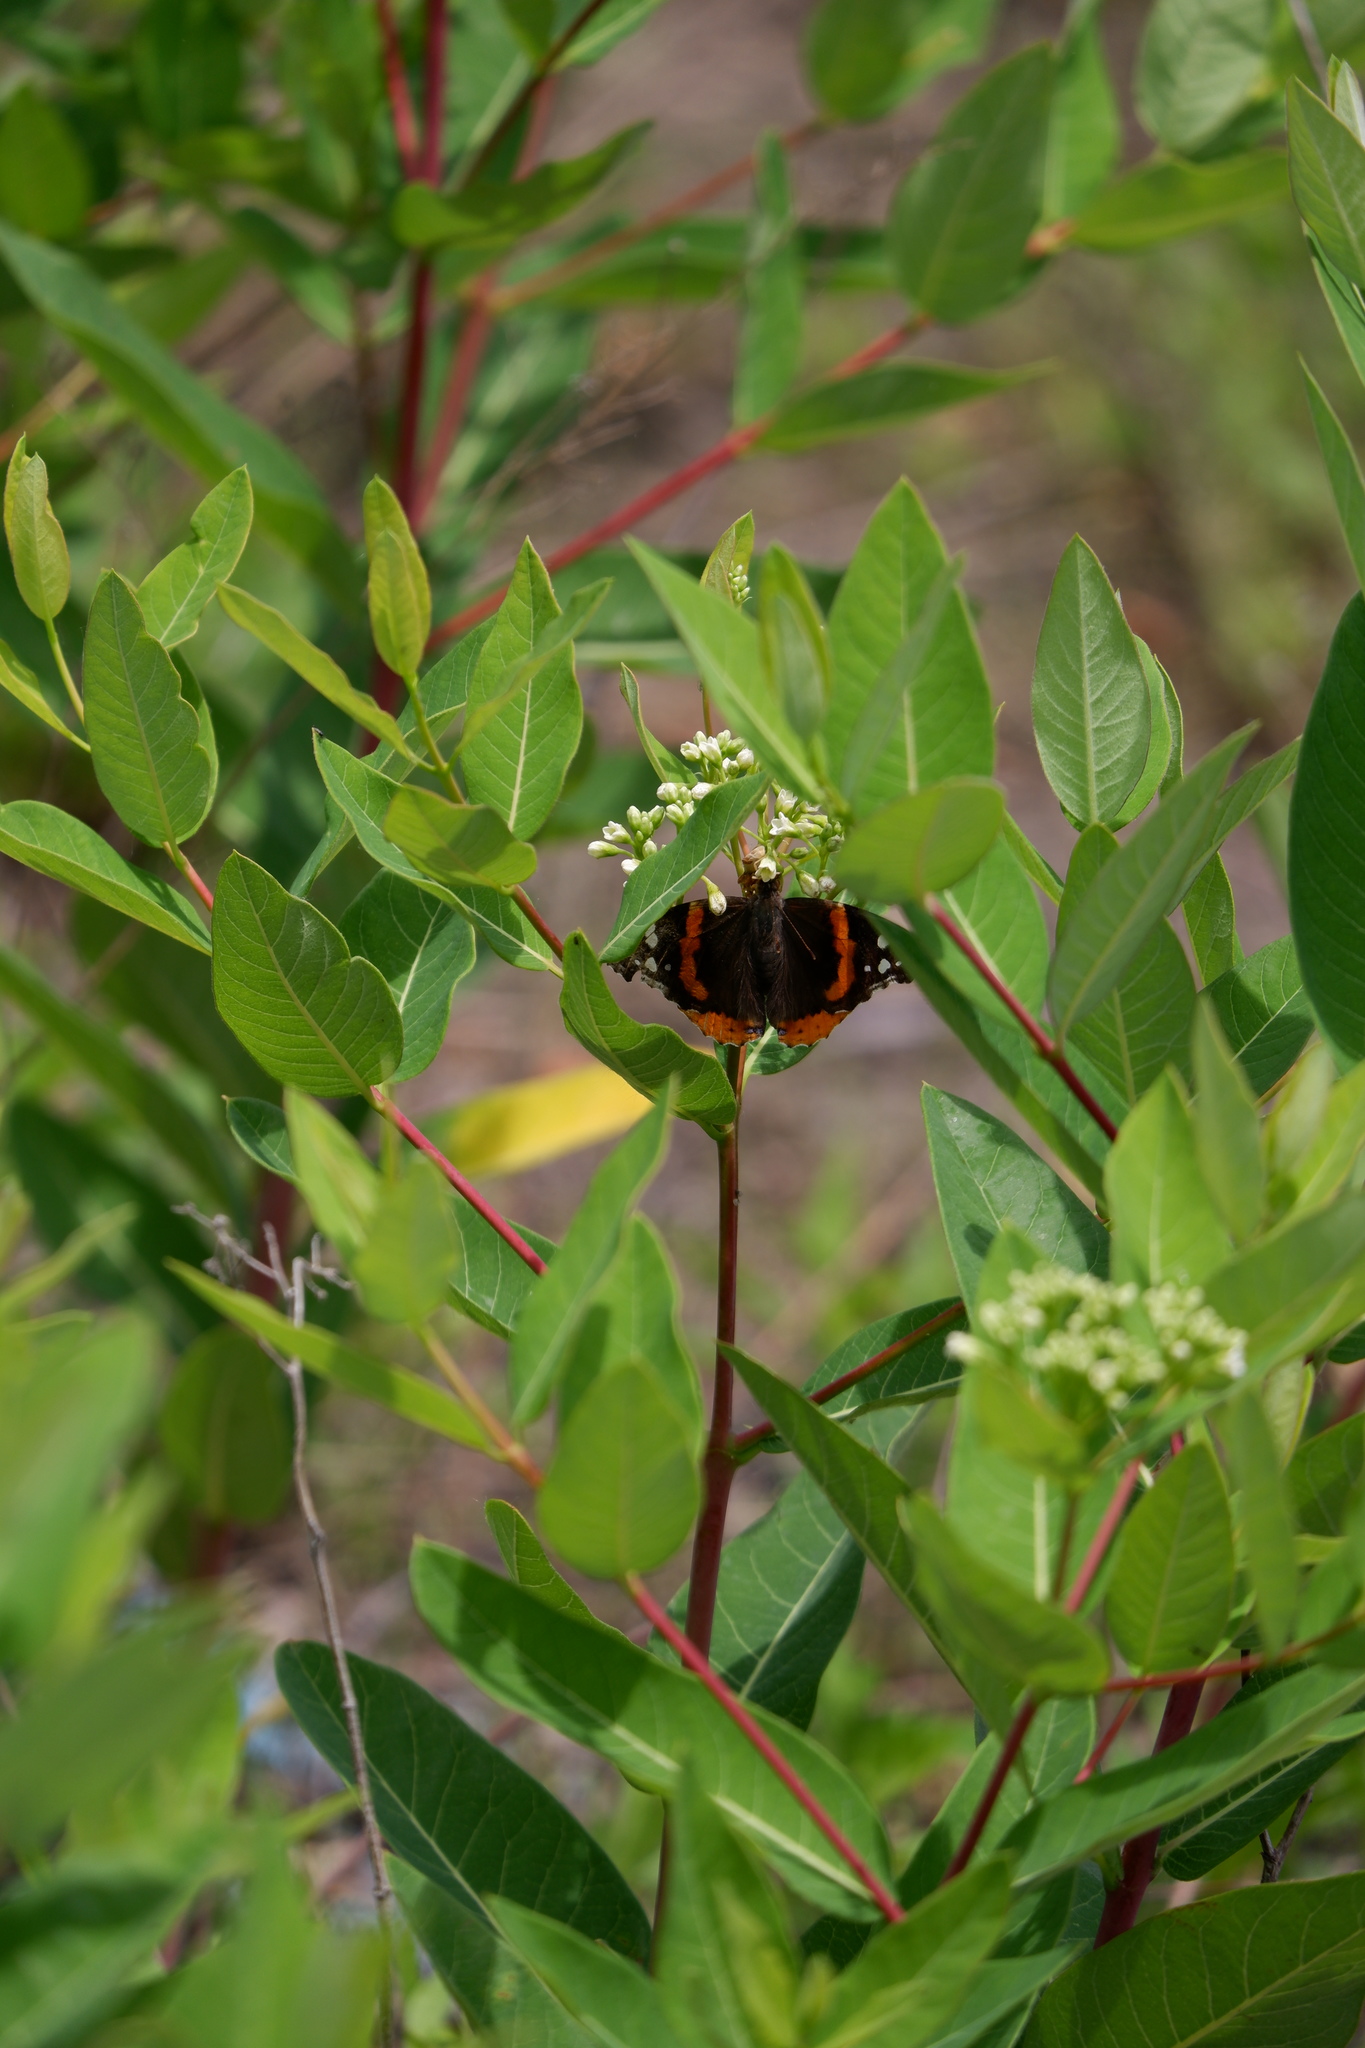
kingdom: Animalia
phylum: Arthropoda
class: Insecta
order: Lepidoptera
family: Nymphalidae
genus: Vanessa
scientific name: Vanessa atalanta
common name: Red admiral
